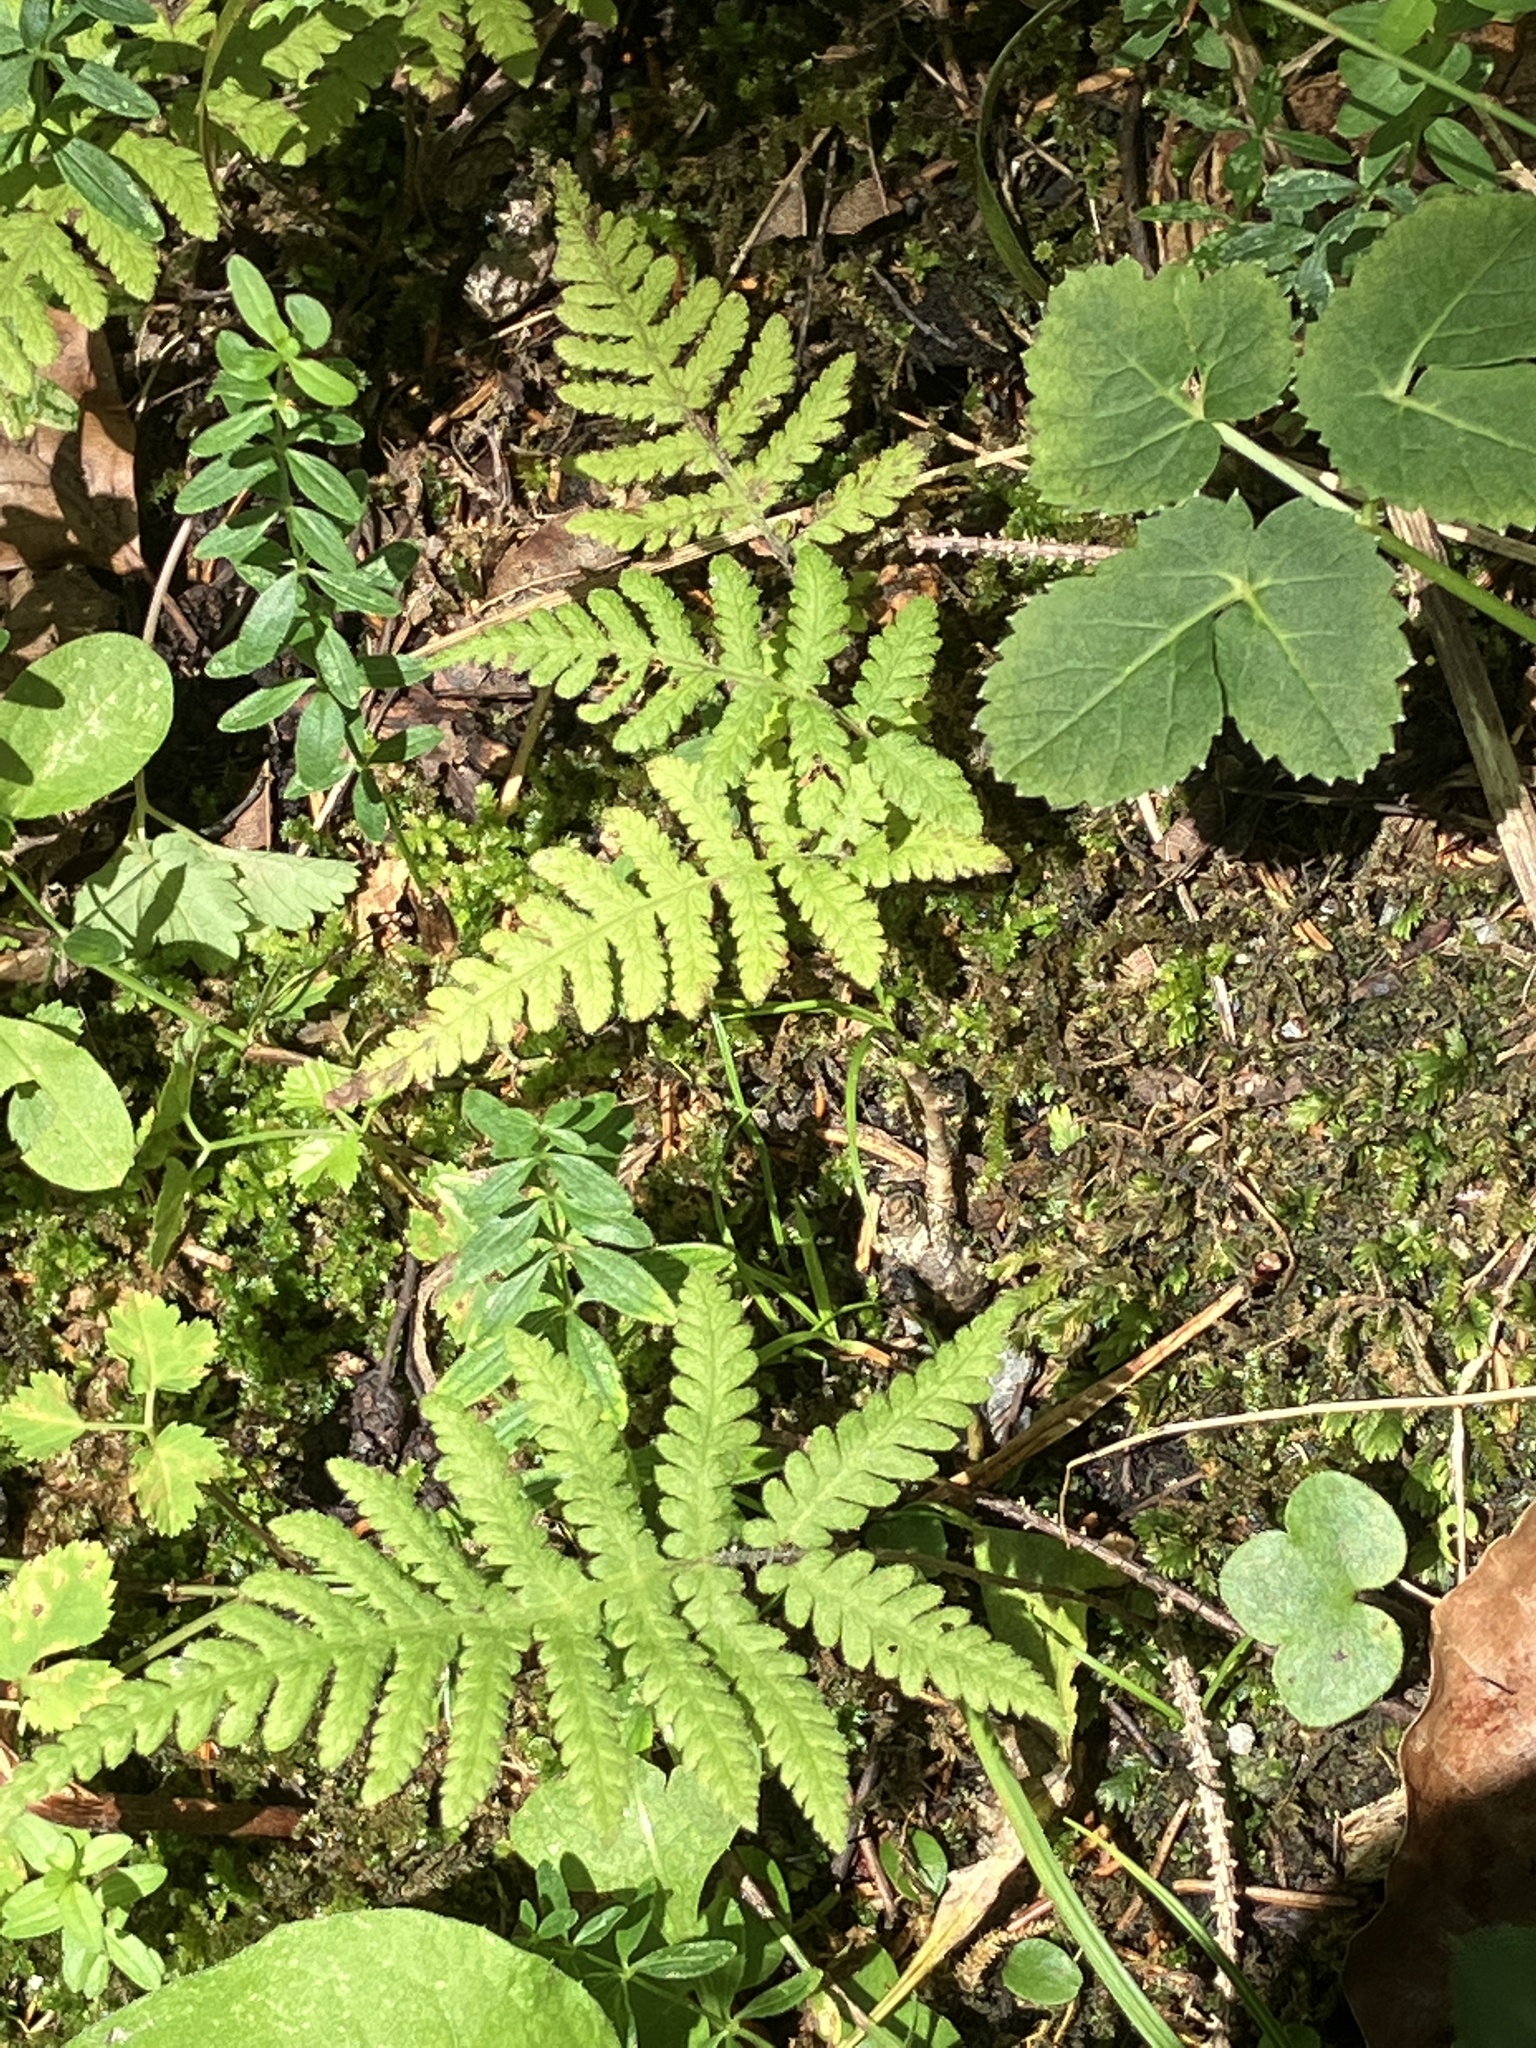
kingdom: Plantae
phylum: Tracheophyta
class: Polypodiopsida
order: Polypodiales
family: Thelypteridaceae
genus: Phegopteris
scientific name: Phegopteris connectilis
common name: Beech fern
